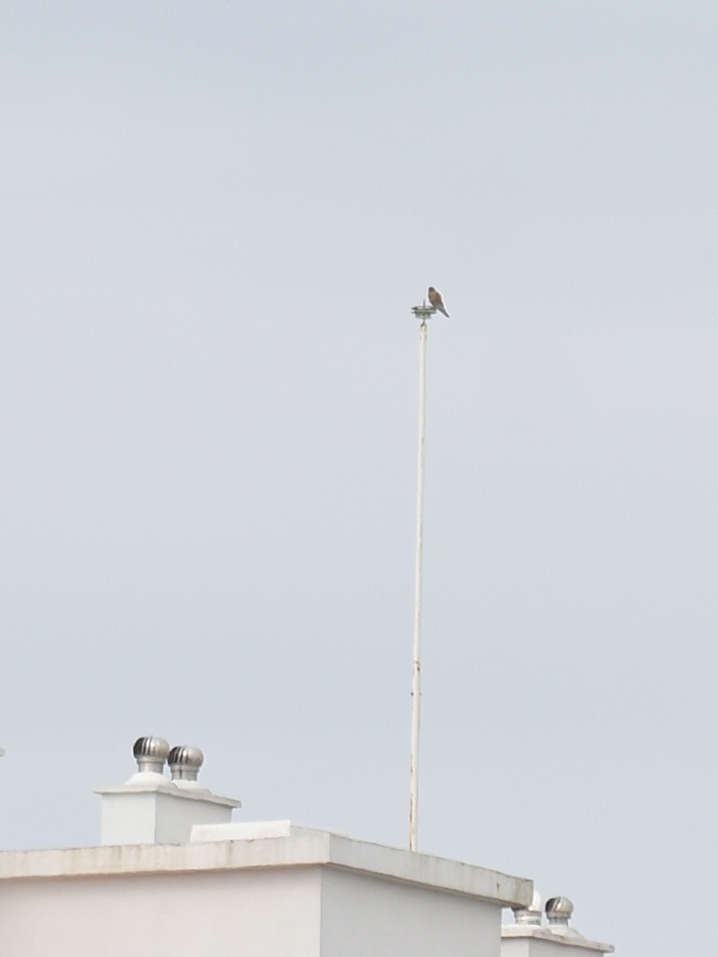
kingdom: Animalia
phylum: Chordata
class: Aves
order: Falconiformes
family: Falconidae
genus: Falco
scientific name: Falco tinnunculus
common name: Common kestrel
